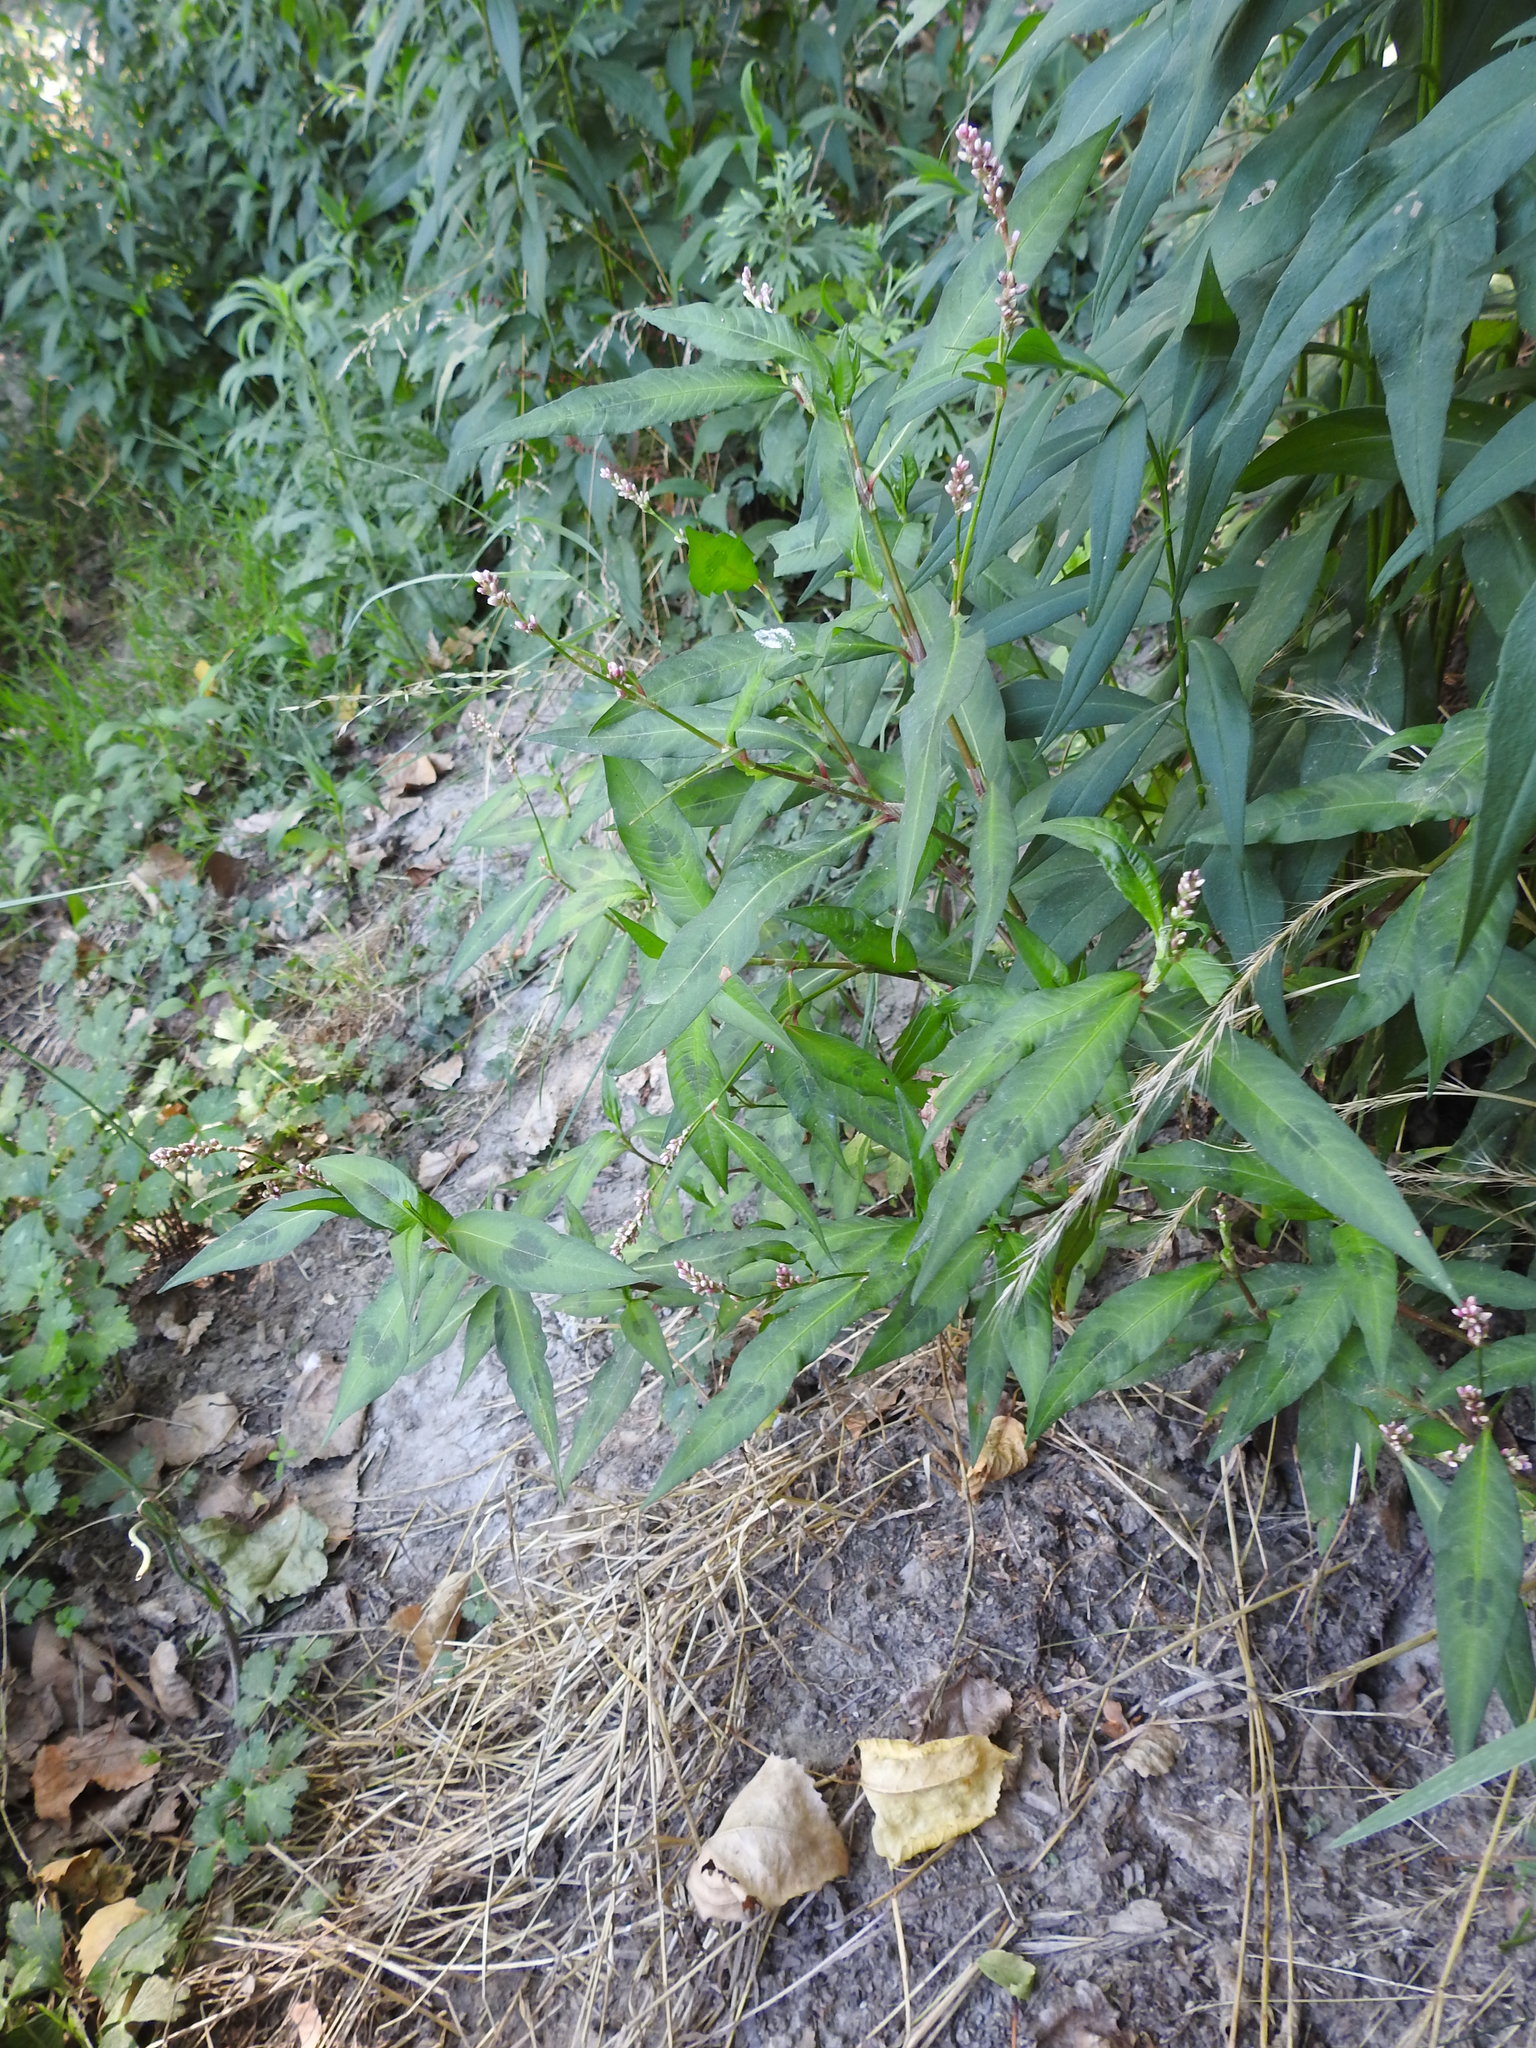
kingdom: Plantae
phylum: Tracheophyta
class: Magnoliopsida
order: Caryophyllales
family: Polygonaceae
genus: Persicaria
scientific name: Persicaria maculosa
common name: Redshank
